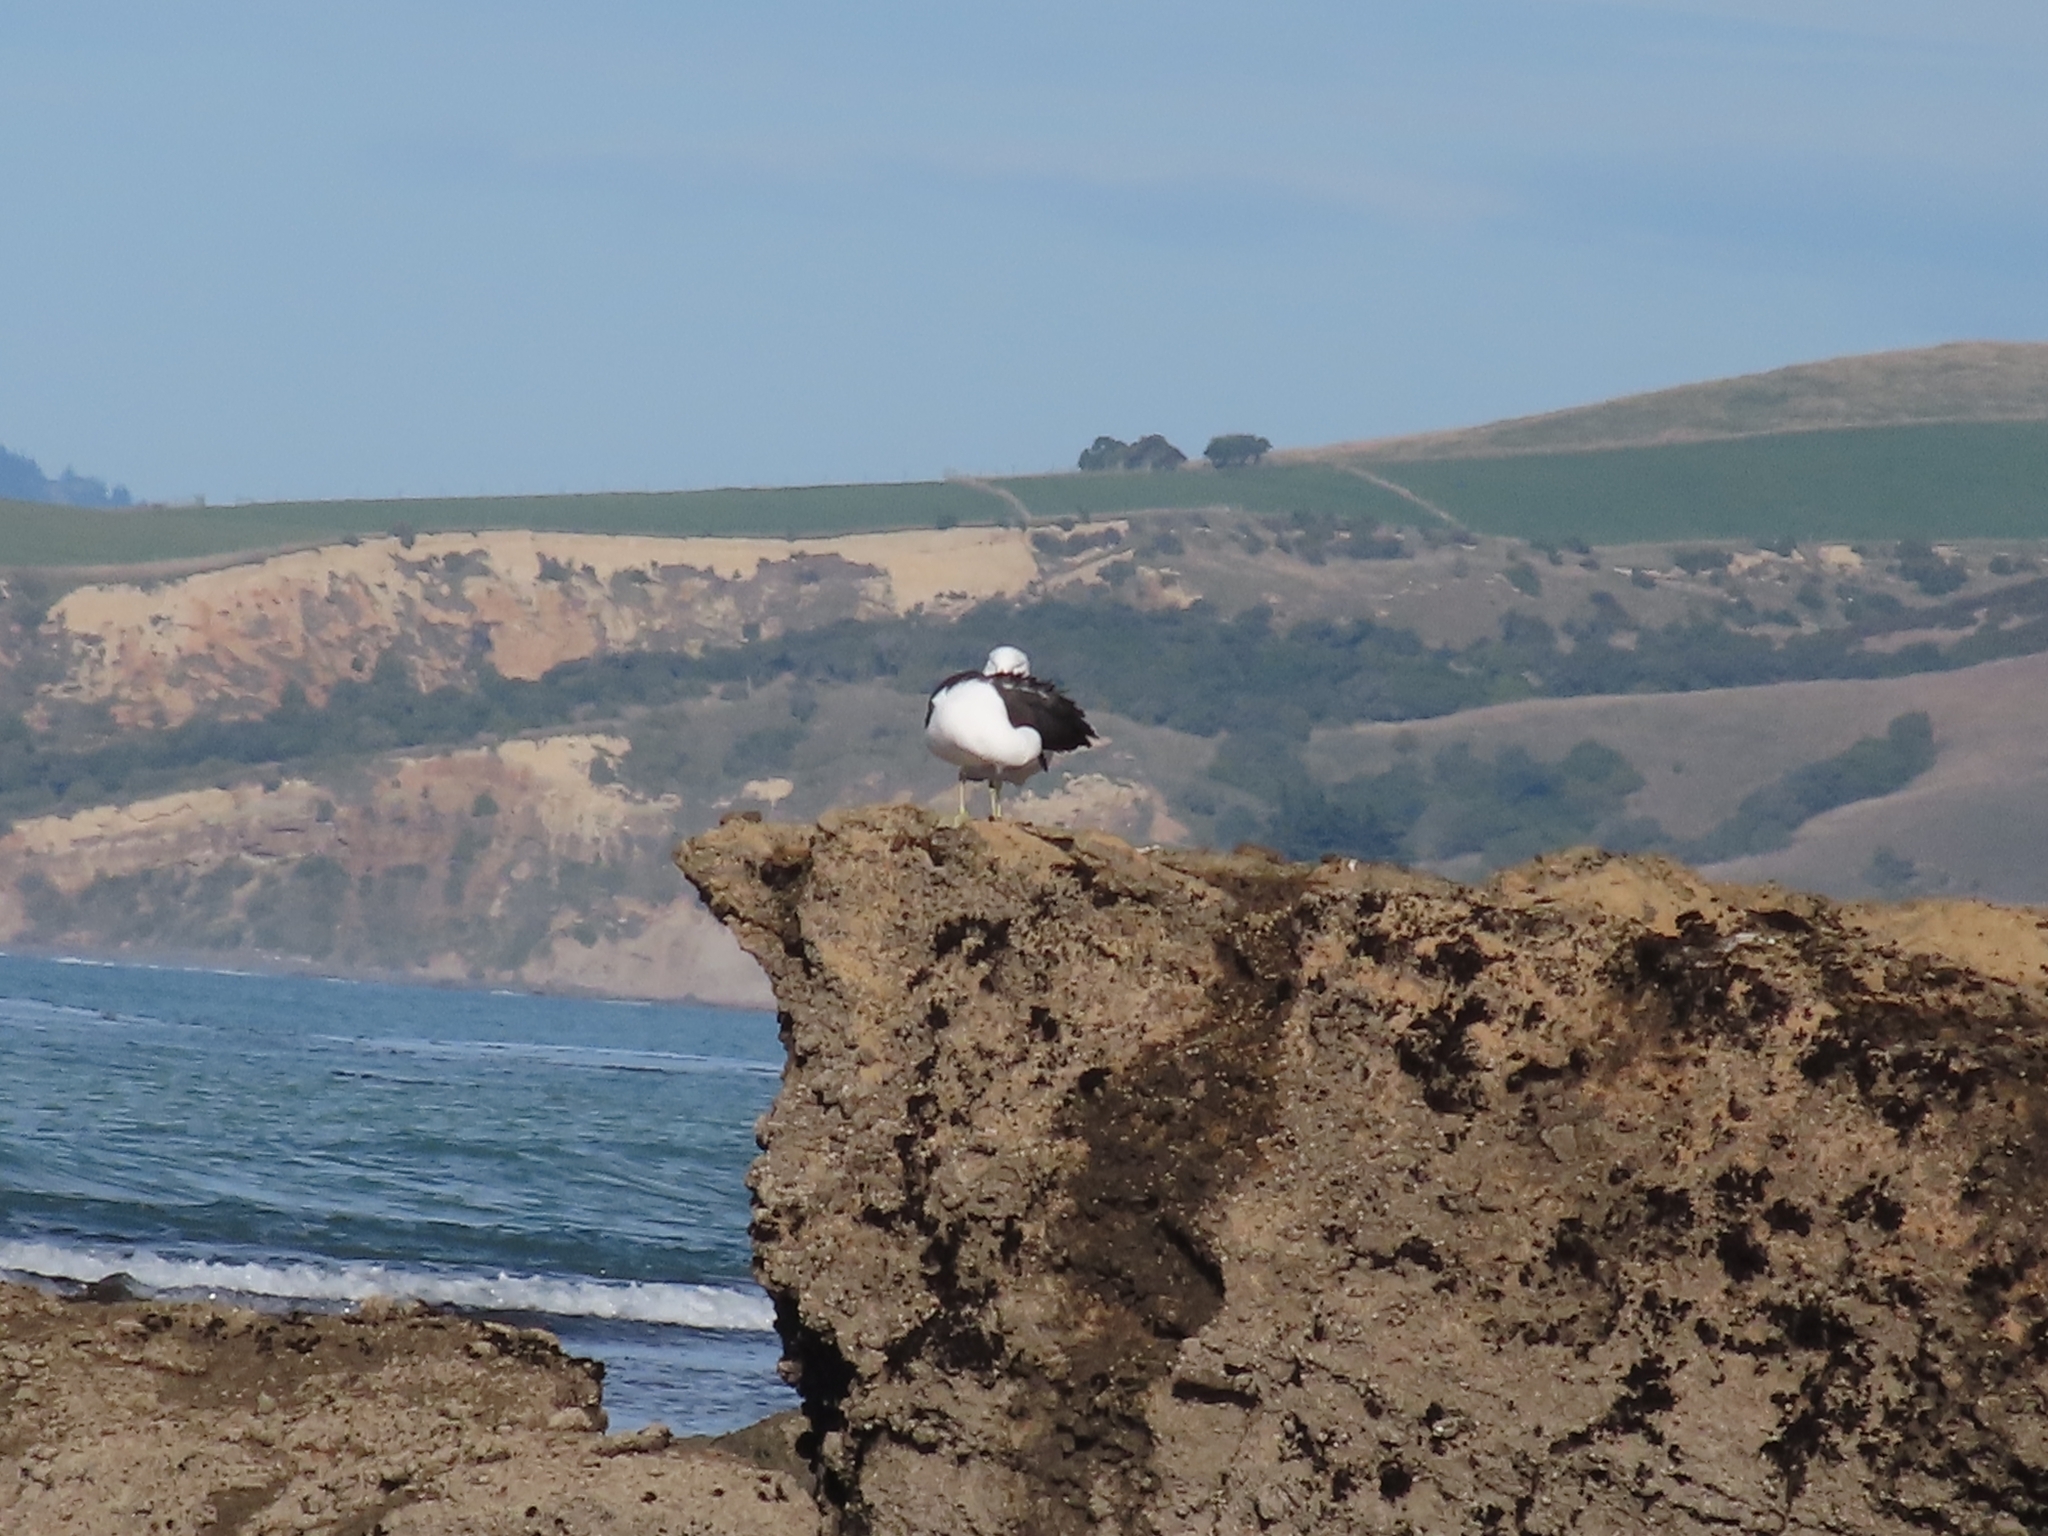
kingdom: Animalia
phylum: Chordata
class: Aves
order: Charadriiformes
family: Laridae
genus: Larus
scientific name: Larus dominicanus
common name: Kelp gull
